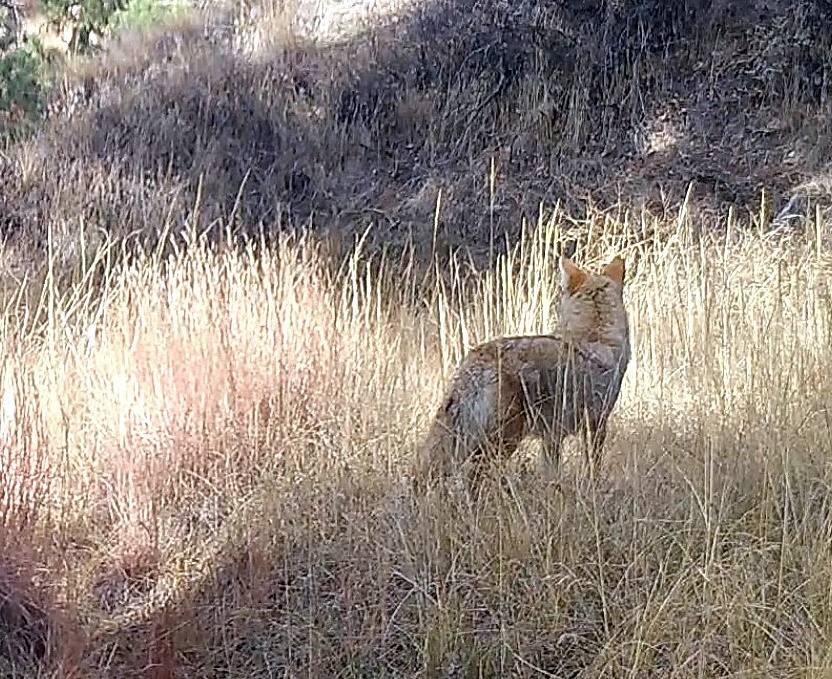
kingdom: Animalia
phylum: Chordata
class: Mammalia
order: Carnivora
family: Canidae
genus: Canis
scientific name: Canis latrans
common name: Coyote
